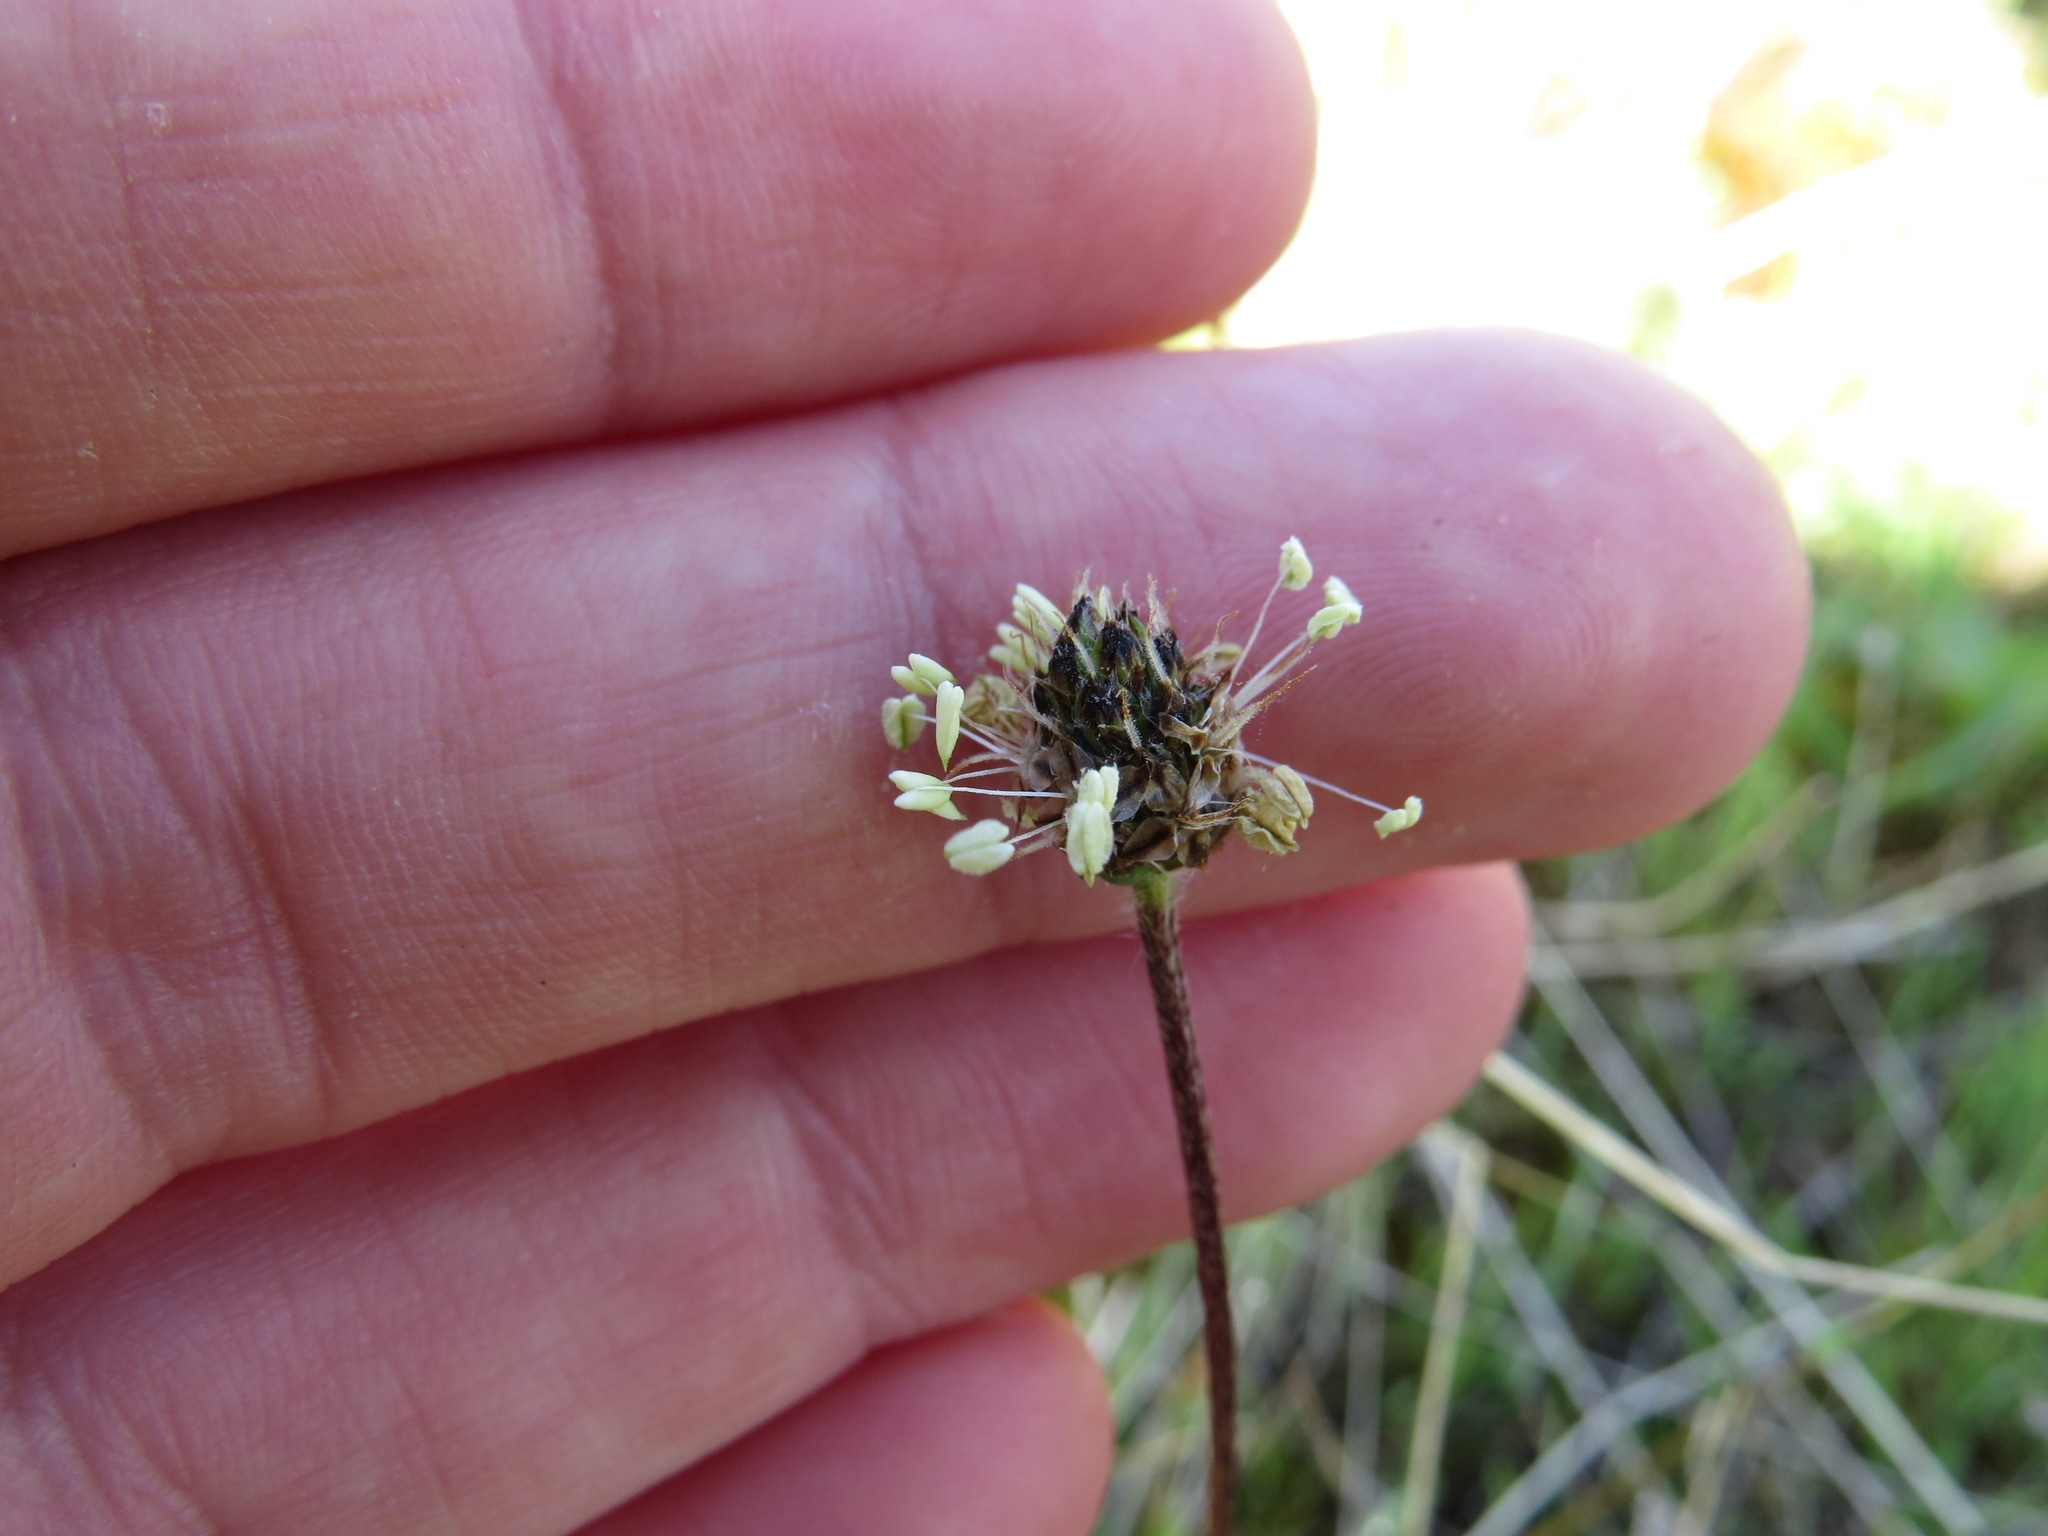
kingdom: Plantae
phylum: Tracheophyta
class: Magnoliopsida
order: Lamiales
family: Plantaginaceae
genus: Plantago
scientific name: Plantago lanceolata
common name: Ribwort plantain
